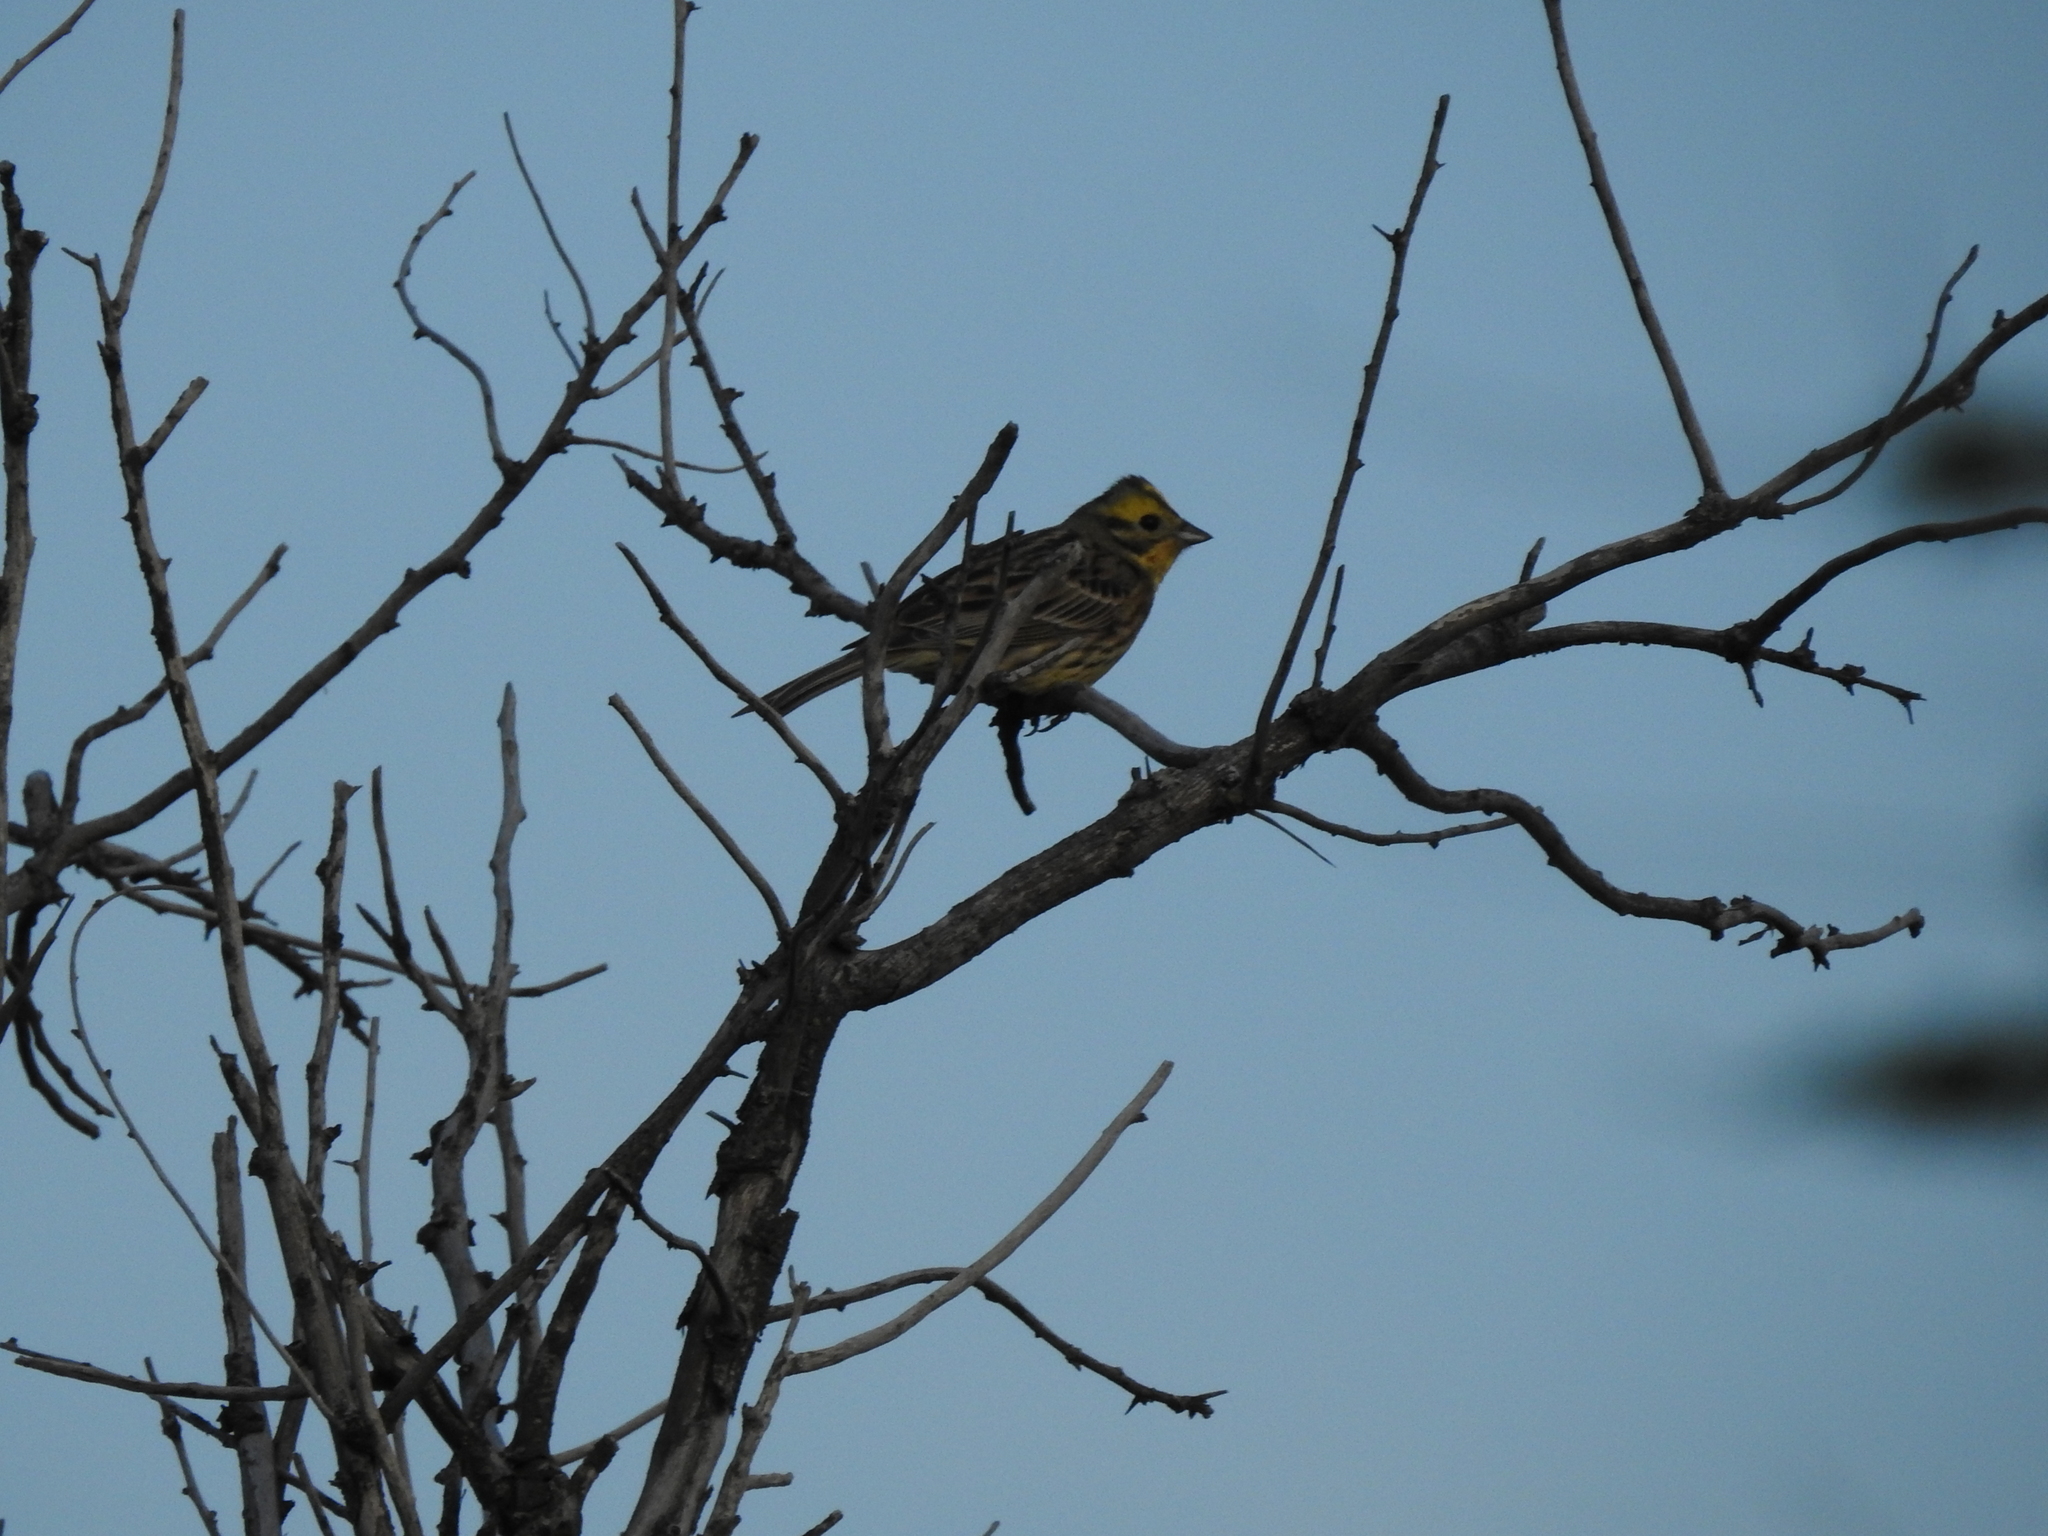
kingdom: Animalia
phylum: Chordata
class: Aves
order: Passeriformes
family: Emberizidae
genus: Emberiza
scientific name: Emberiza citrinella
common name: Yellowhammer
